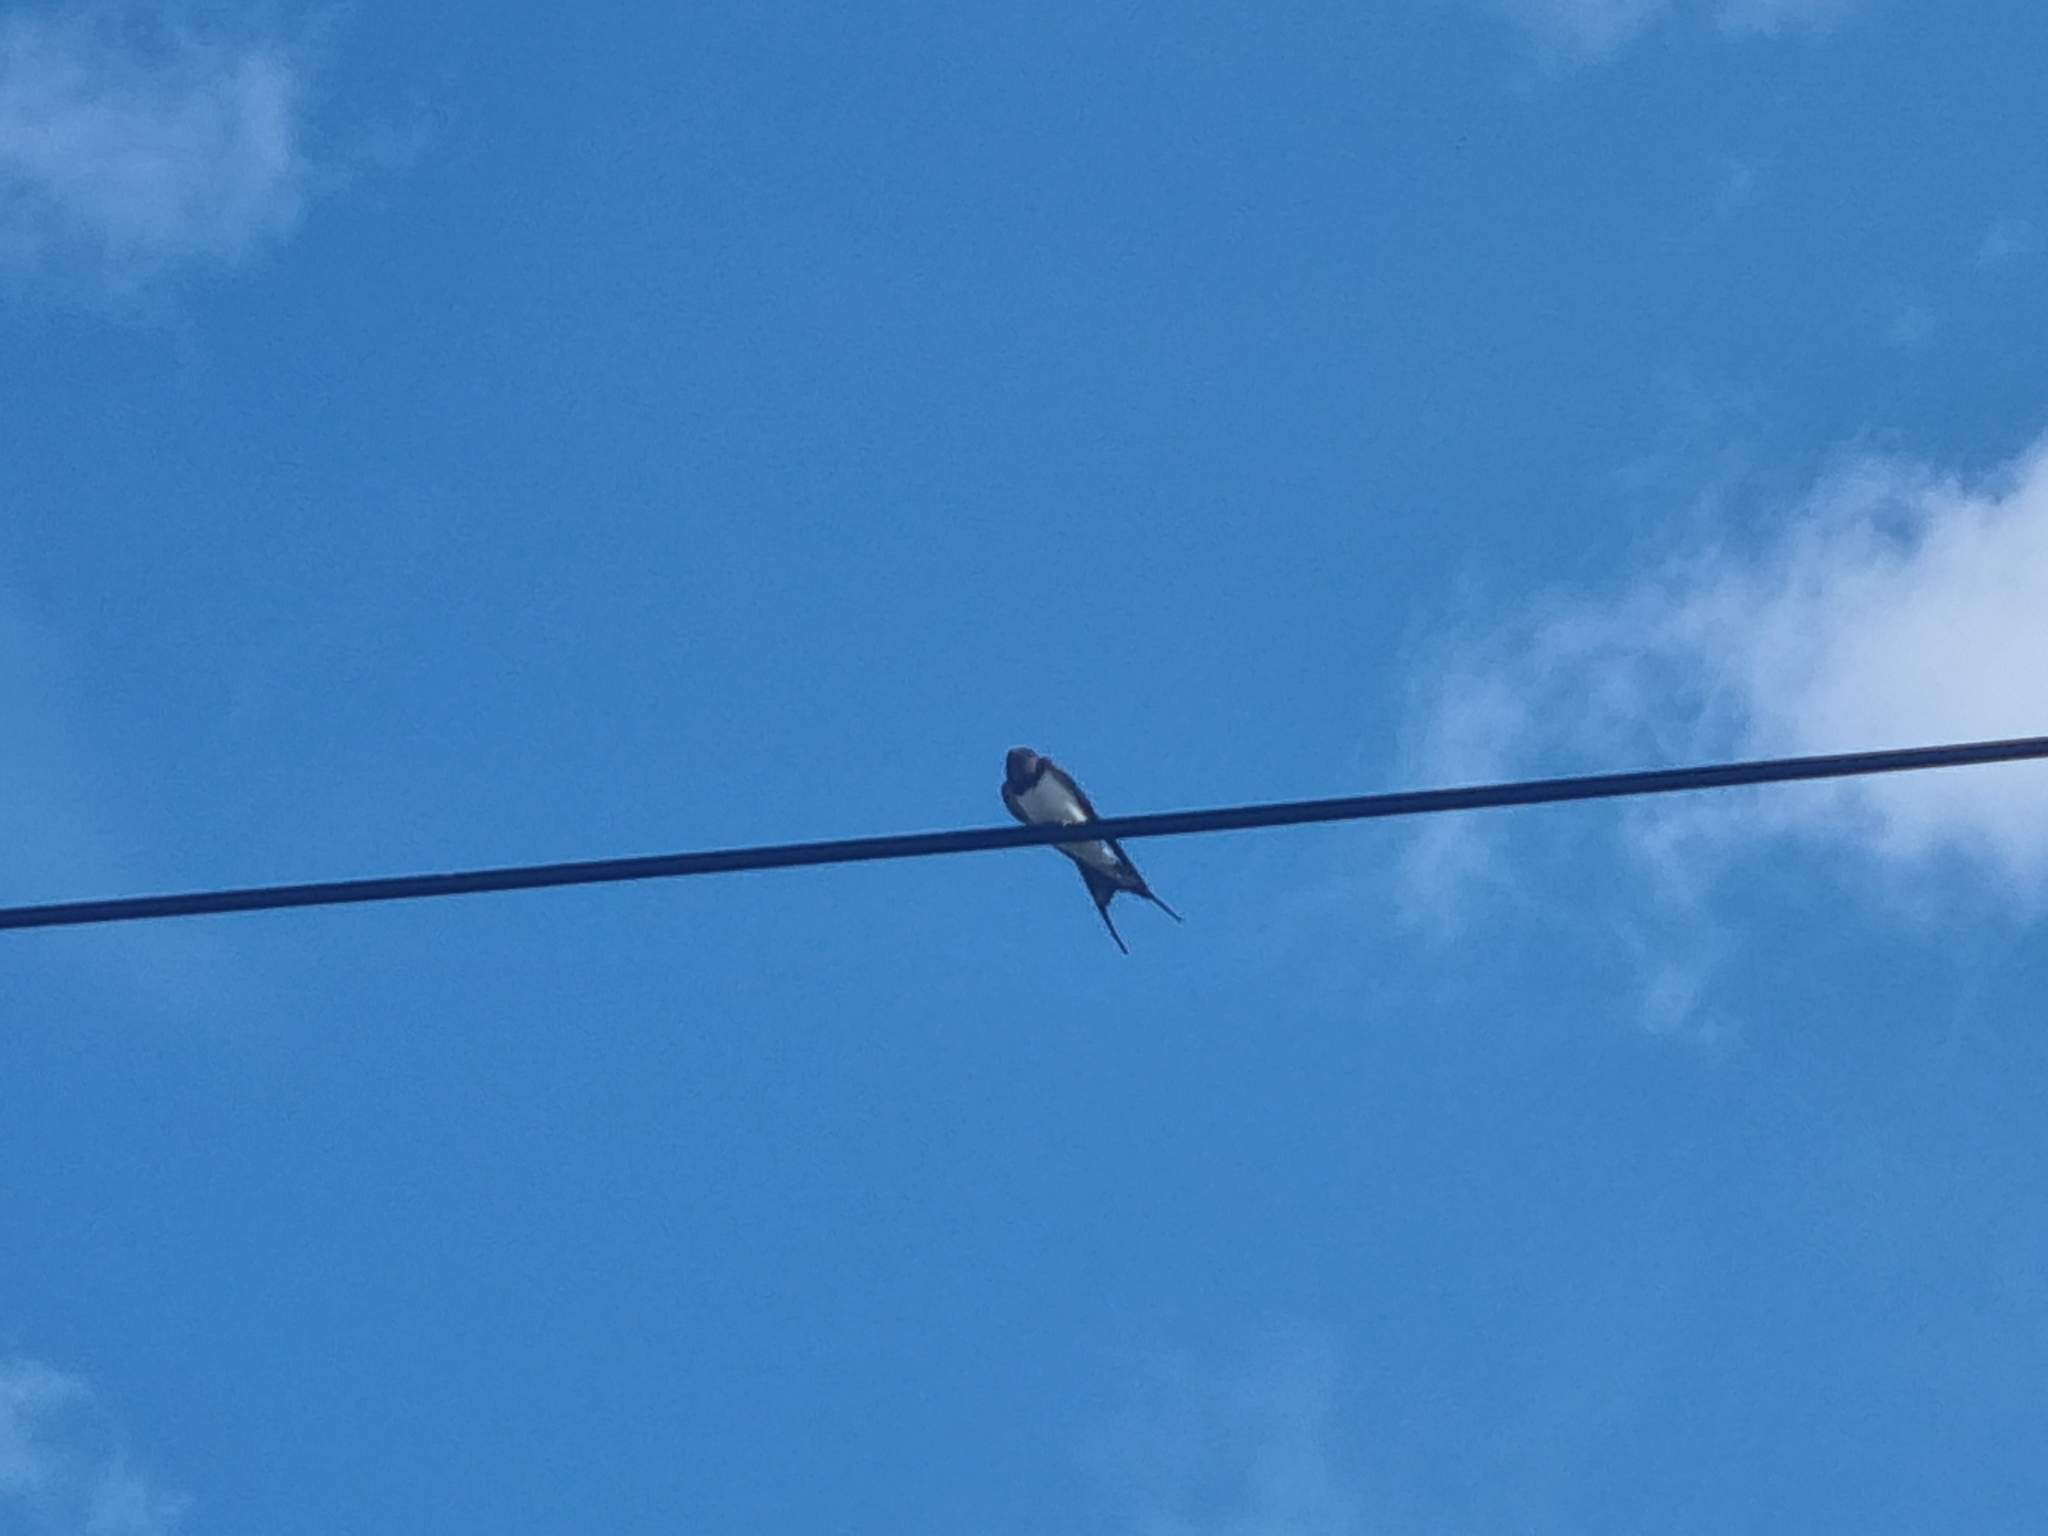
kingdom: Animalia
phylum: Chordata
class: Aves
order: Passeriformes
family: Hirundinidae
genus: Hirundo
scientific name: Hirundo rustica
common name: Barn swallow
